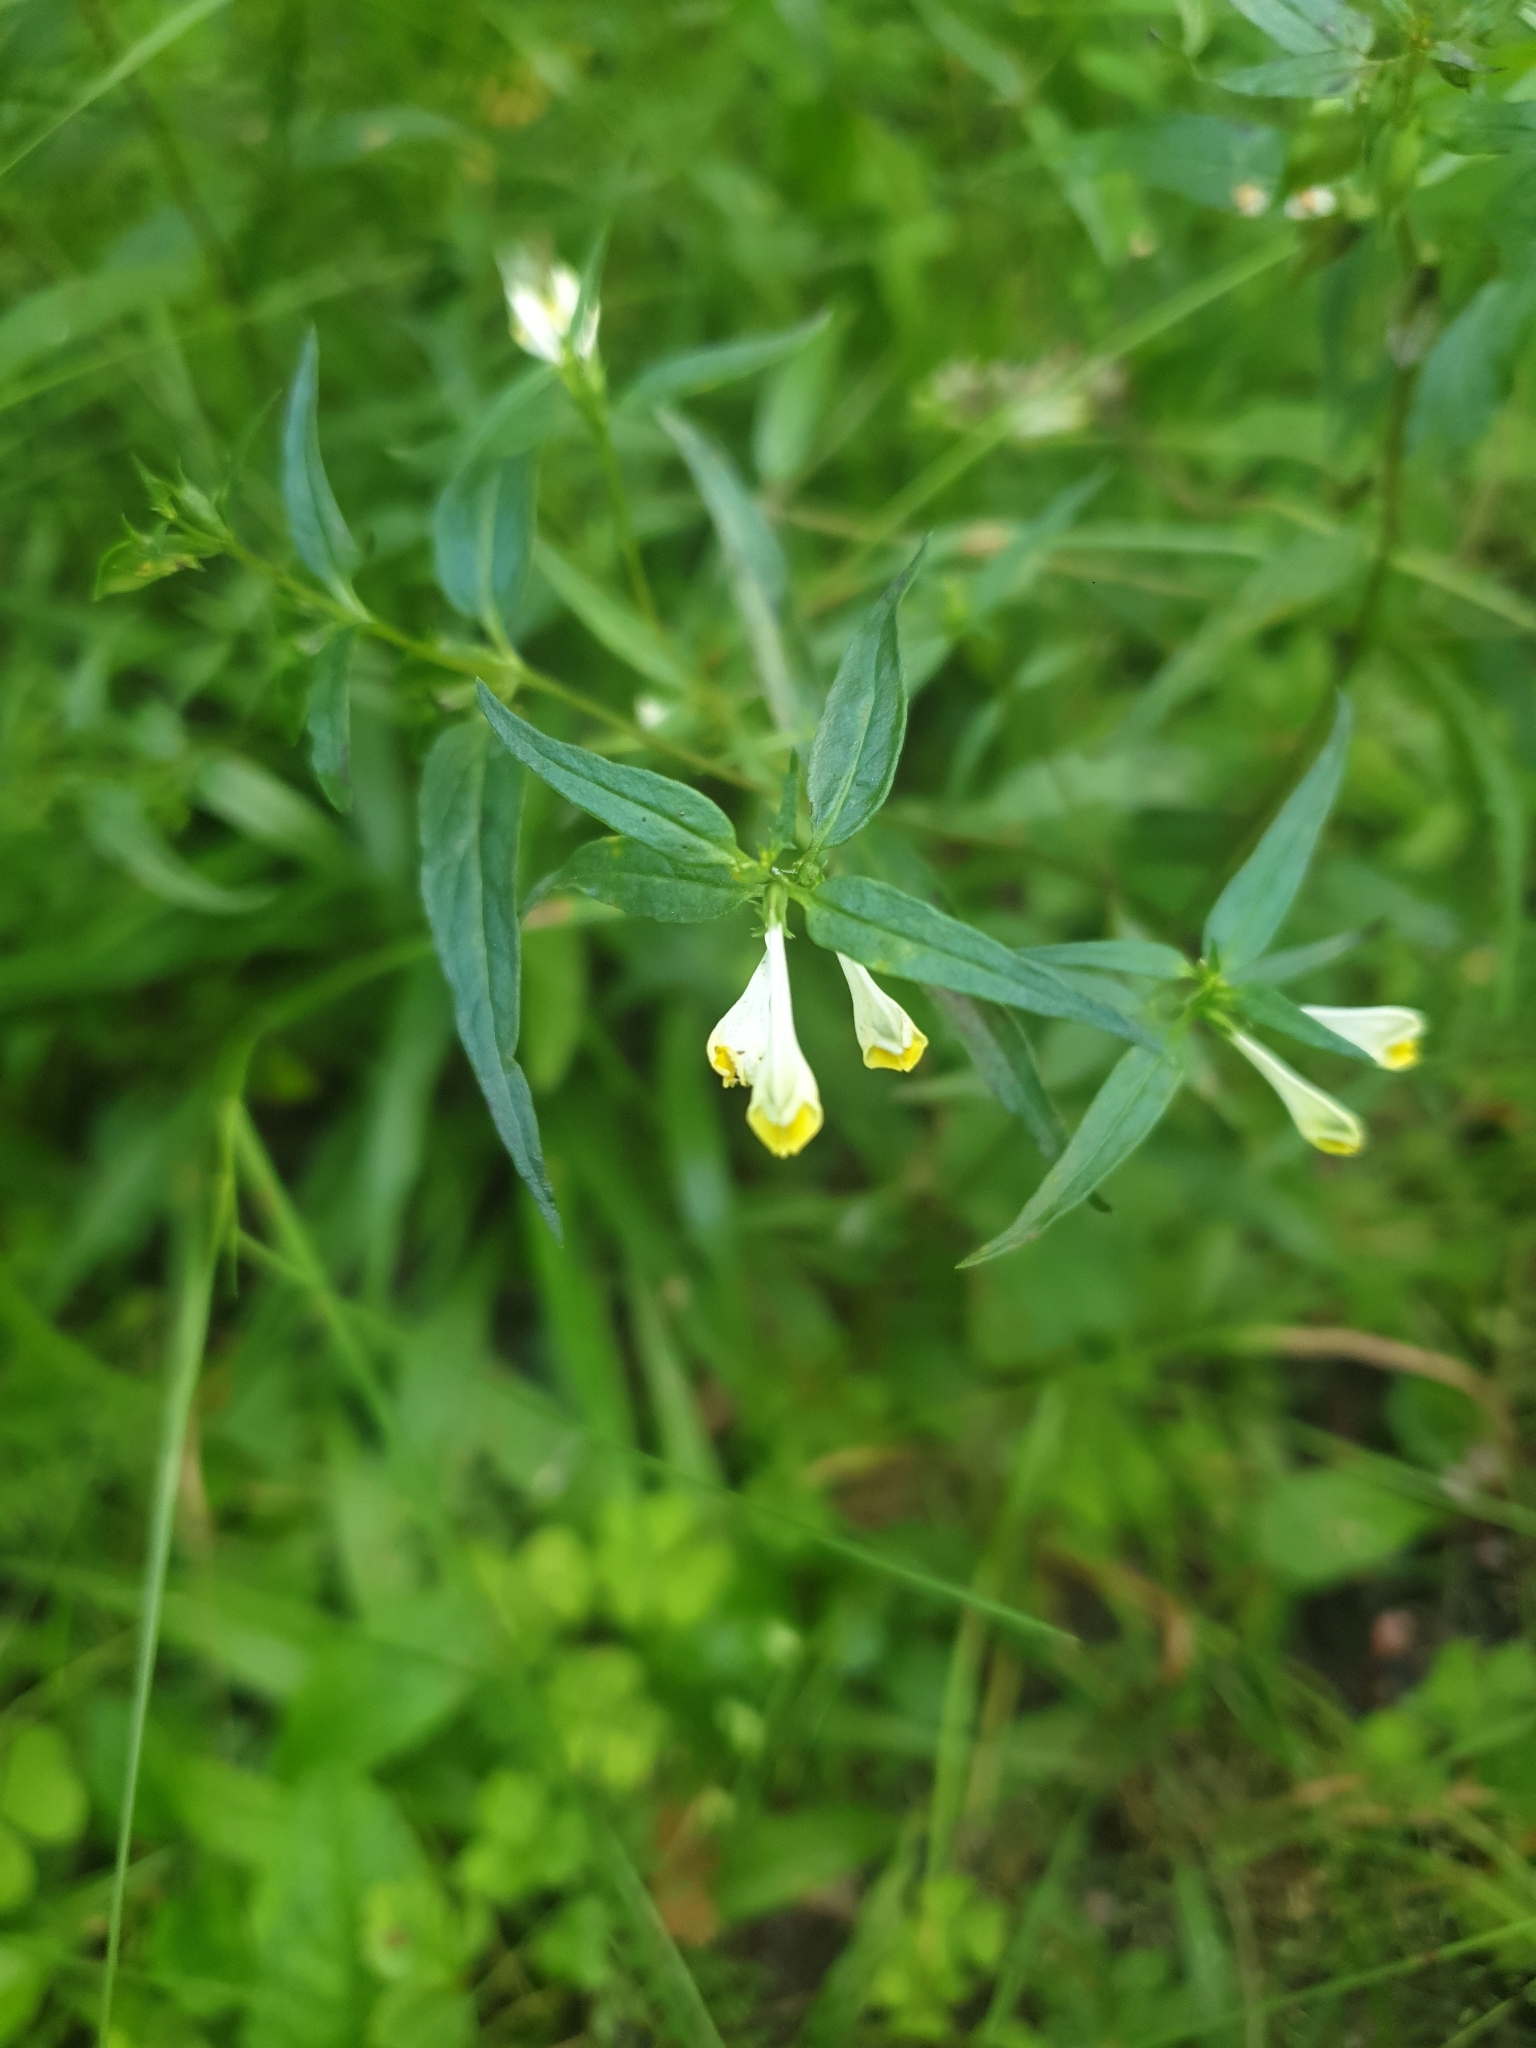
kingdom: Plantae
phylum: Tracheophyta
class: Magnoliopsida
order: Lamiales
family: Orobanchaceae
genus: Melampyrum
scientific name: Melampyrum pratense
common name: Common cow-wheat
